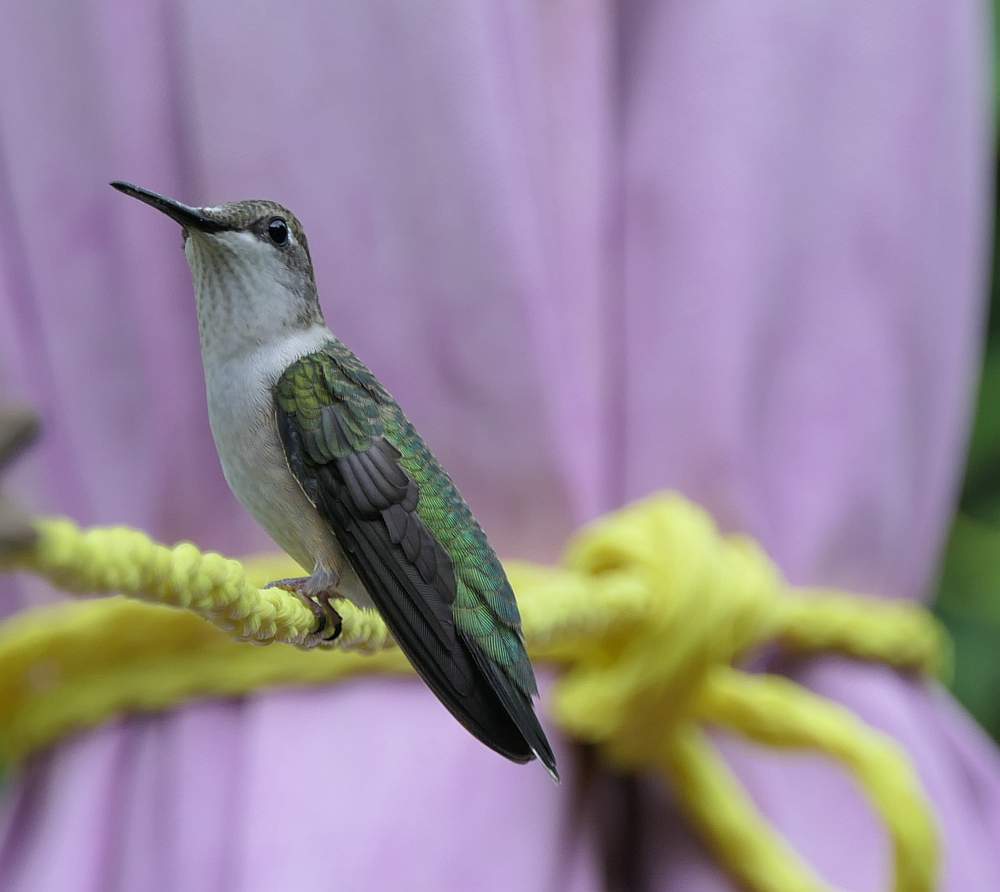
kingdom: Animalia
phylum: Chordata
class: Aves
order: Apodiformes
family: Trochilidae
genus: Archilochus
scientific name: Archilochus colubris
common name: Ruby-throated hummingbird
